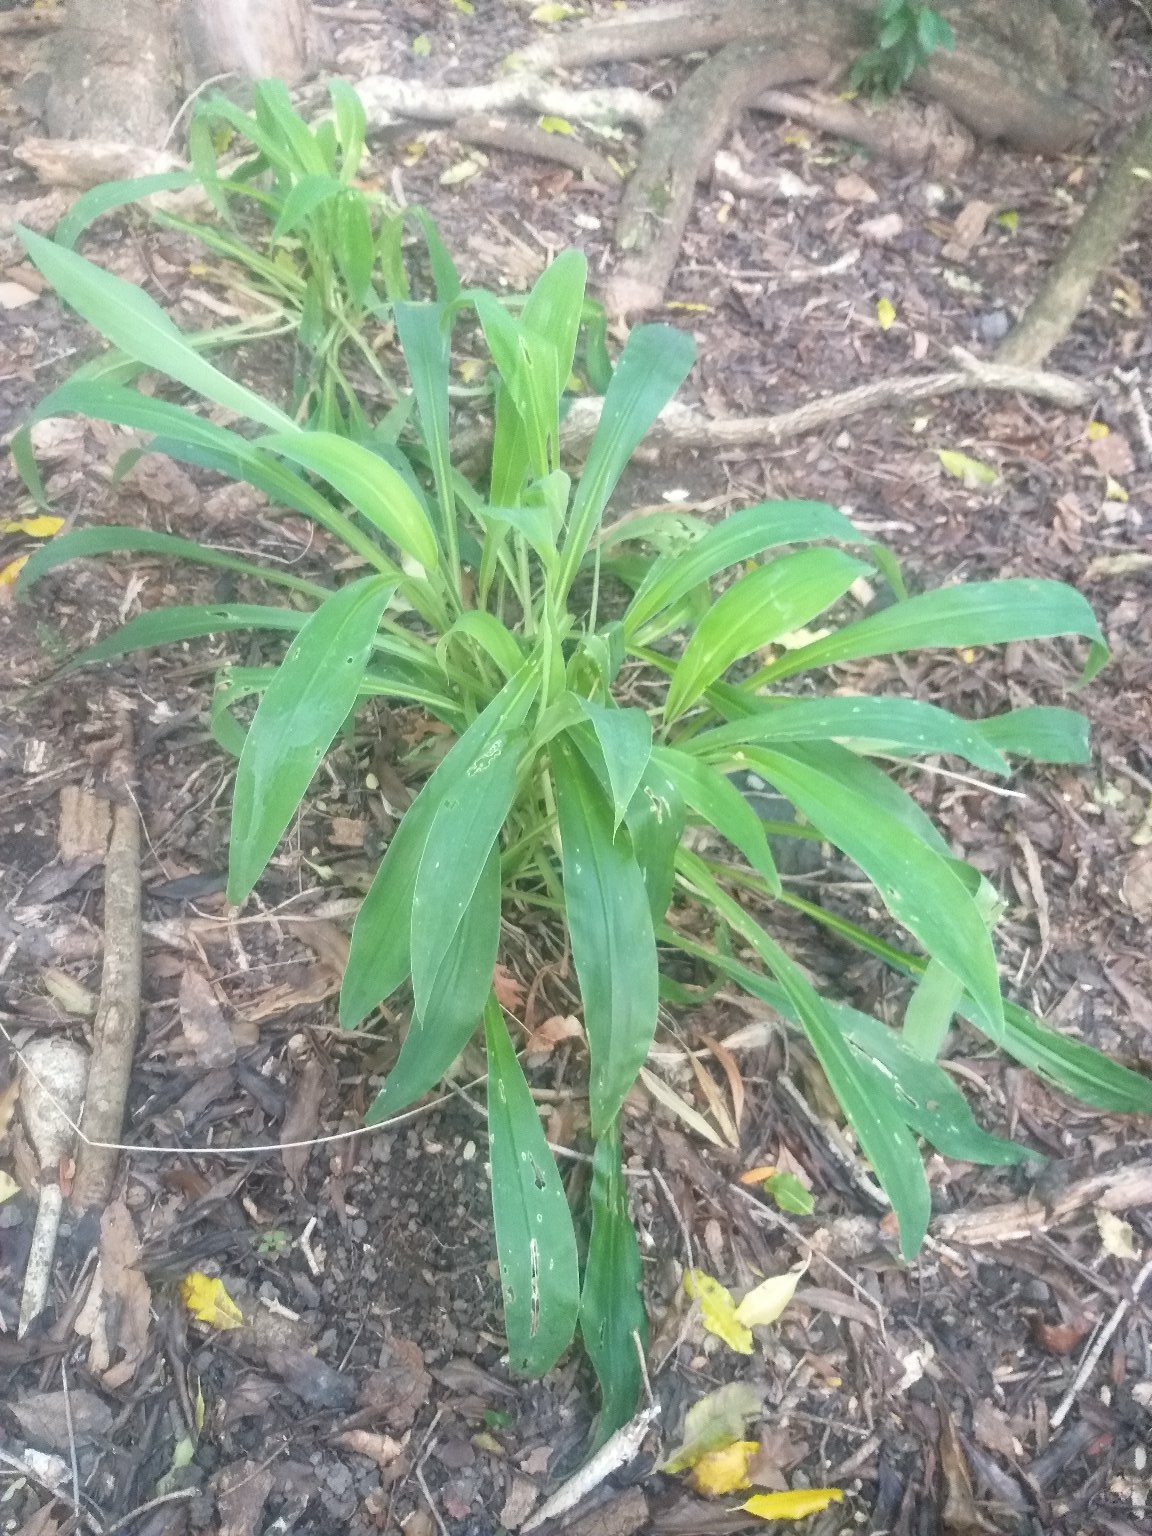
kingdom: Plantae
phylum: Tracheophyta
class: Liliopsida
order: Asparagales
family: Asparagaceae
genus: Arthropodium
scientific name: Arthropodium cirratum
